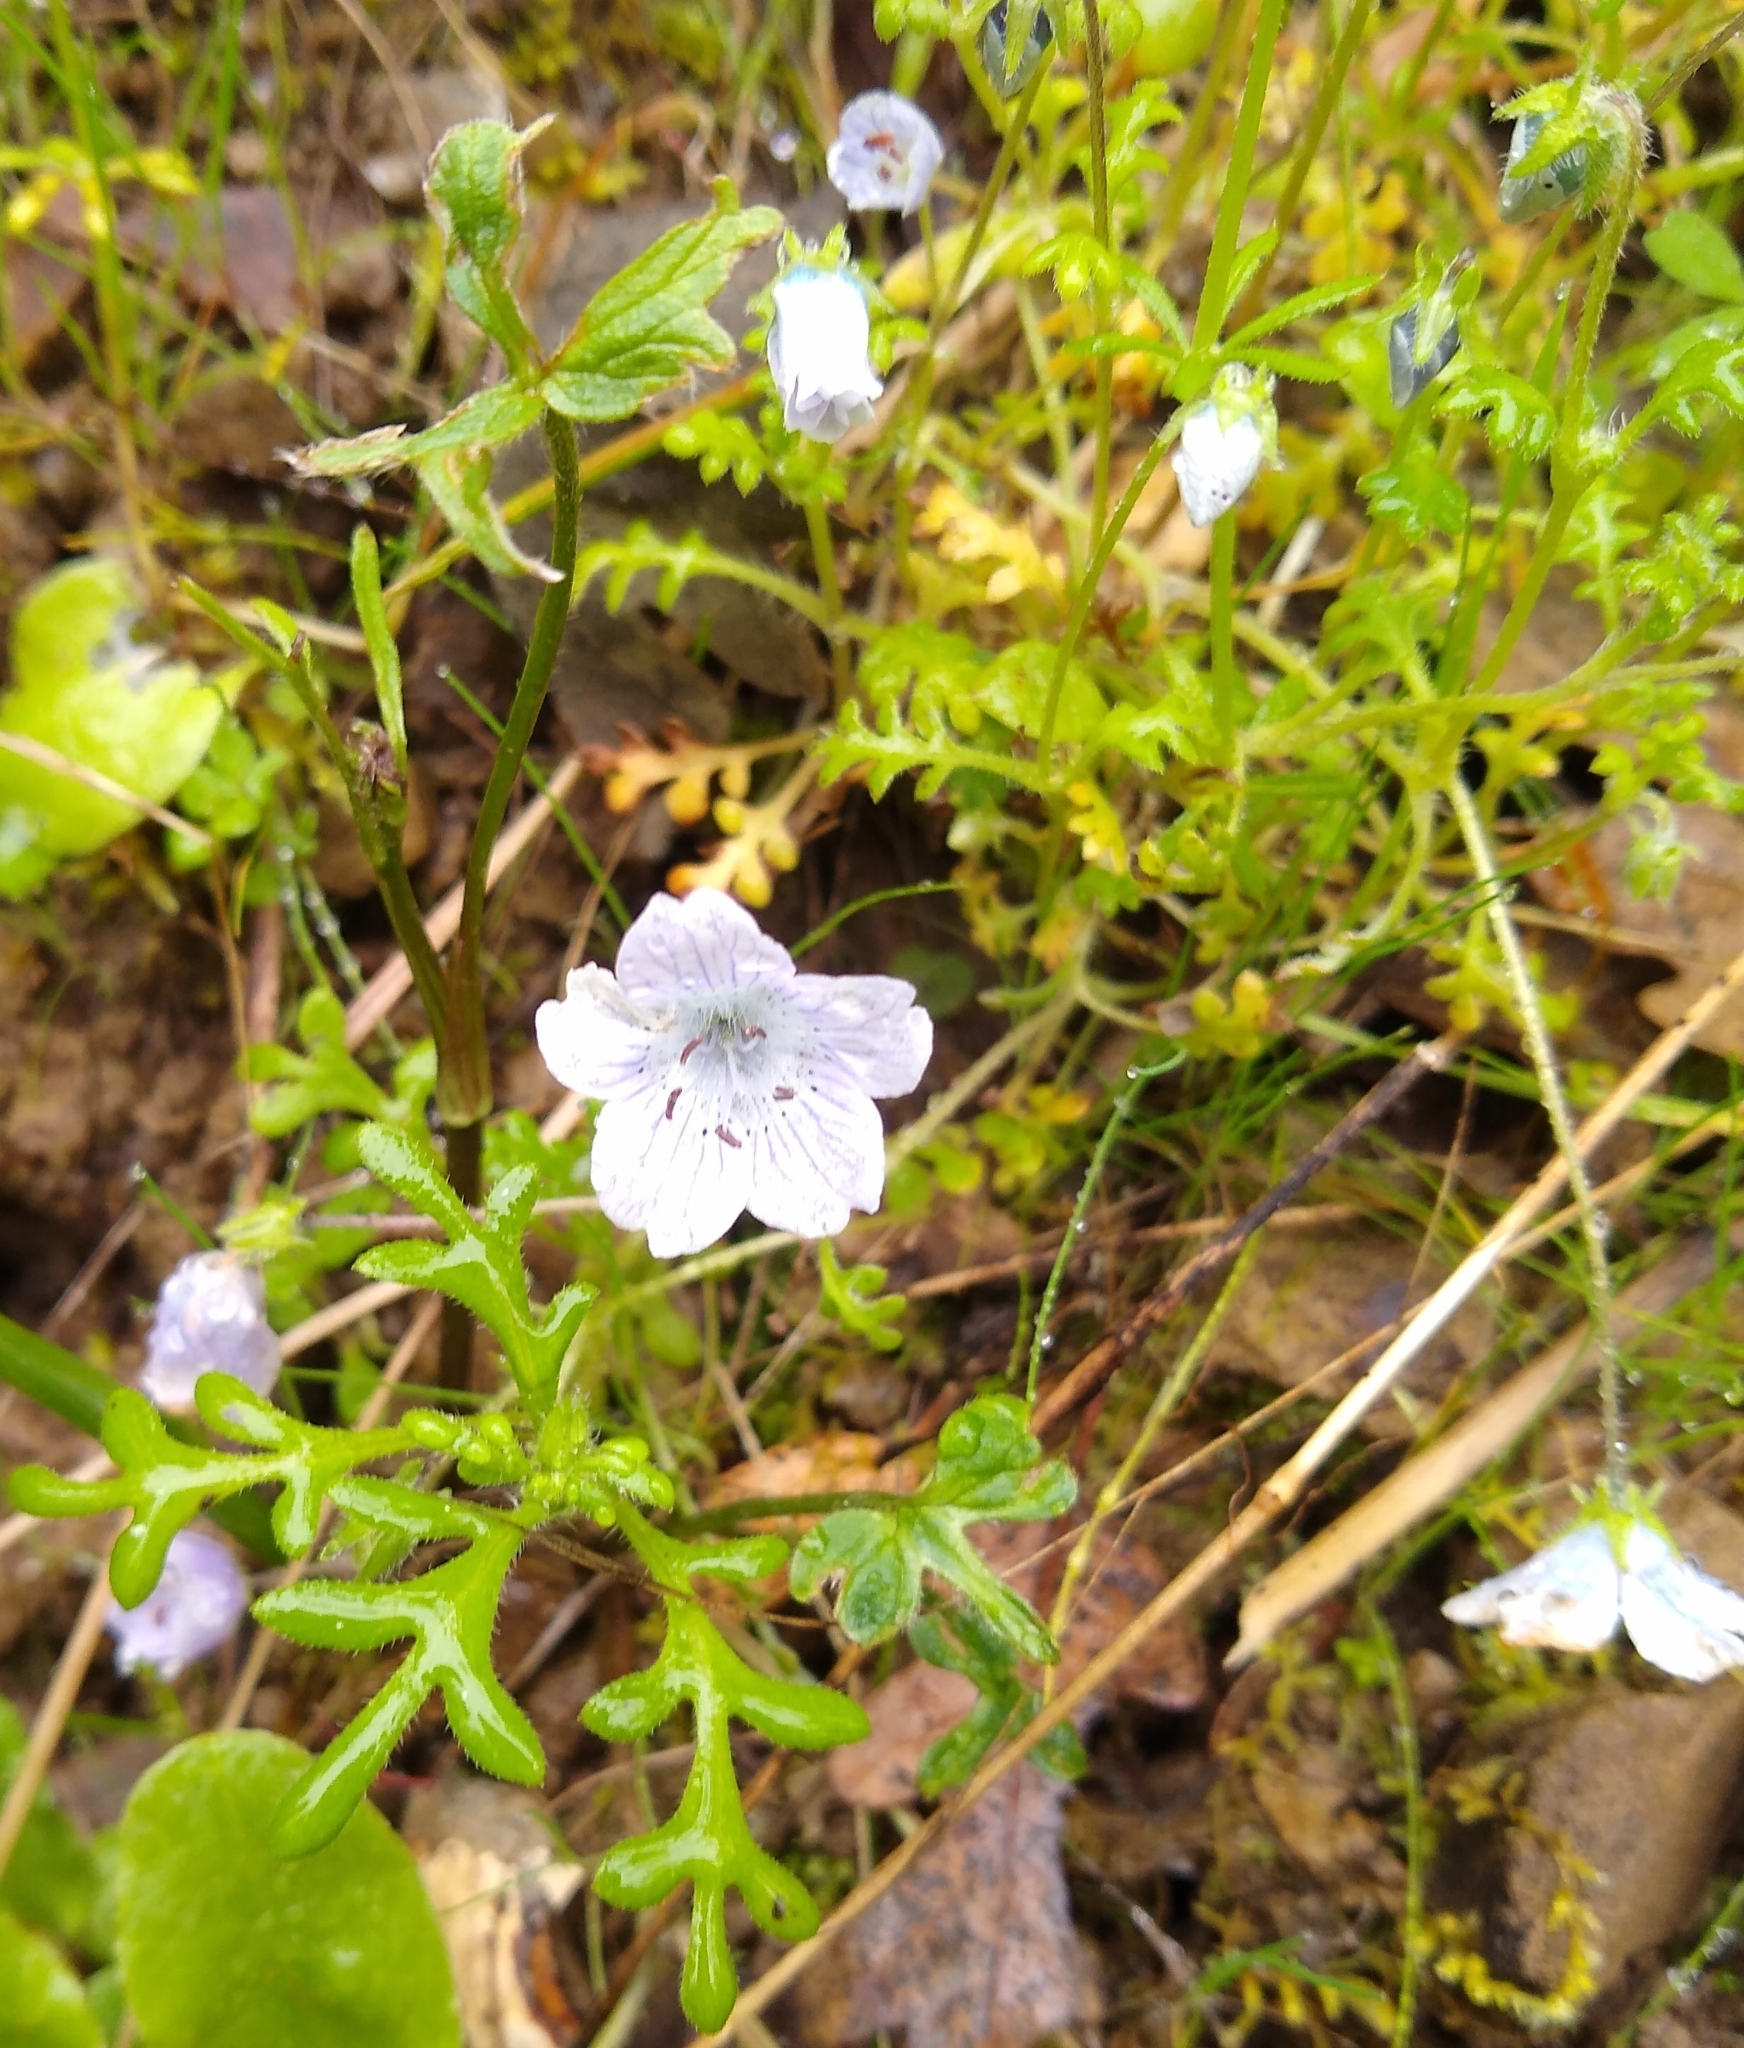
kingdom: Plantae
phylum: Tracheophyta
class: Magnoliopsida
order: Boraginales
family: Hydrophyllaceae
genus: Nemophila
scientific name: Nemophila menziesii
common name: Baby's-blue-eyes
